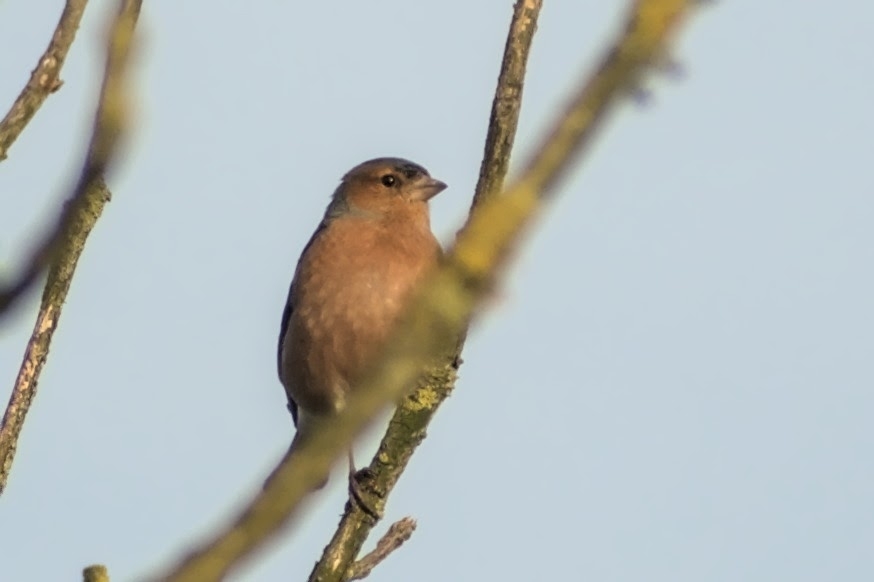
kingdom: Animalia
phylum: Chordata
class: Aves
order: Passeriformes
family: Fringillidae
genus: Fringilla
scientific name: Fringilla coelebs
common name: Common chaffinch
